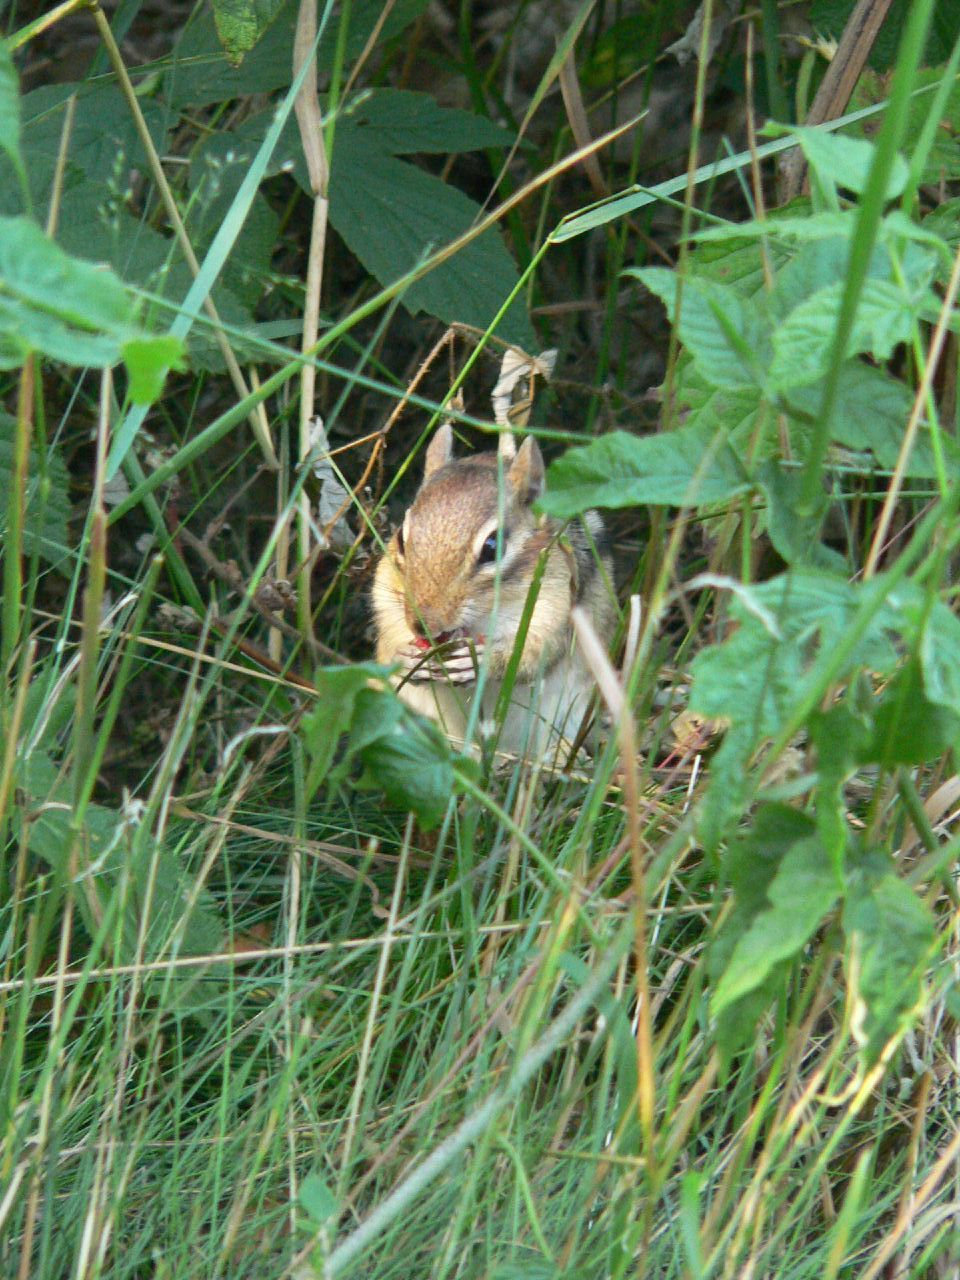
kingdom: Animalia
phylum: Chordata
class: Mammalia
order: Rodentia
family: Sciuridae
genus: Tamias
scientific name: Tamias striatus
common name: Eastern chipmunk
